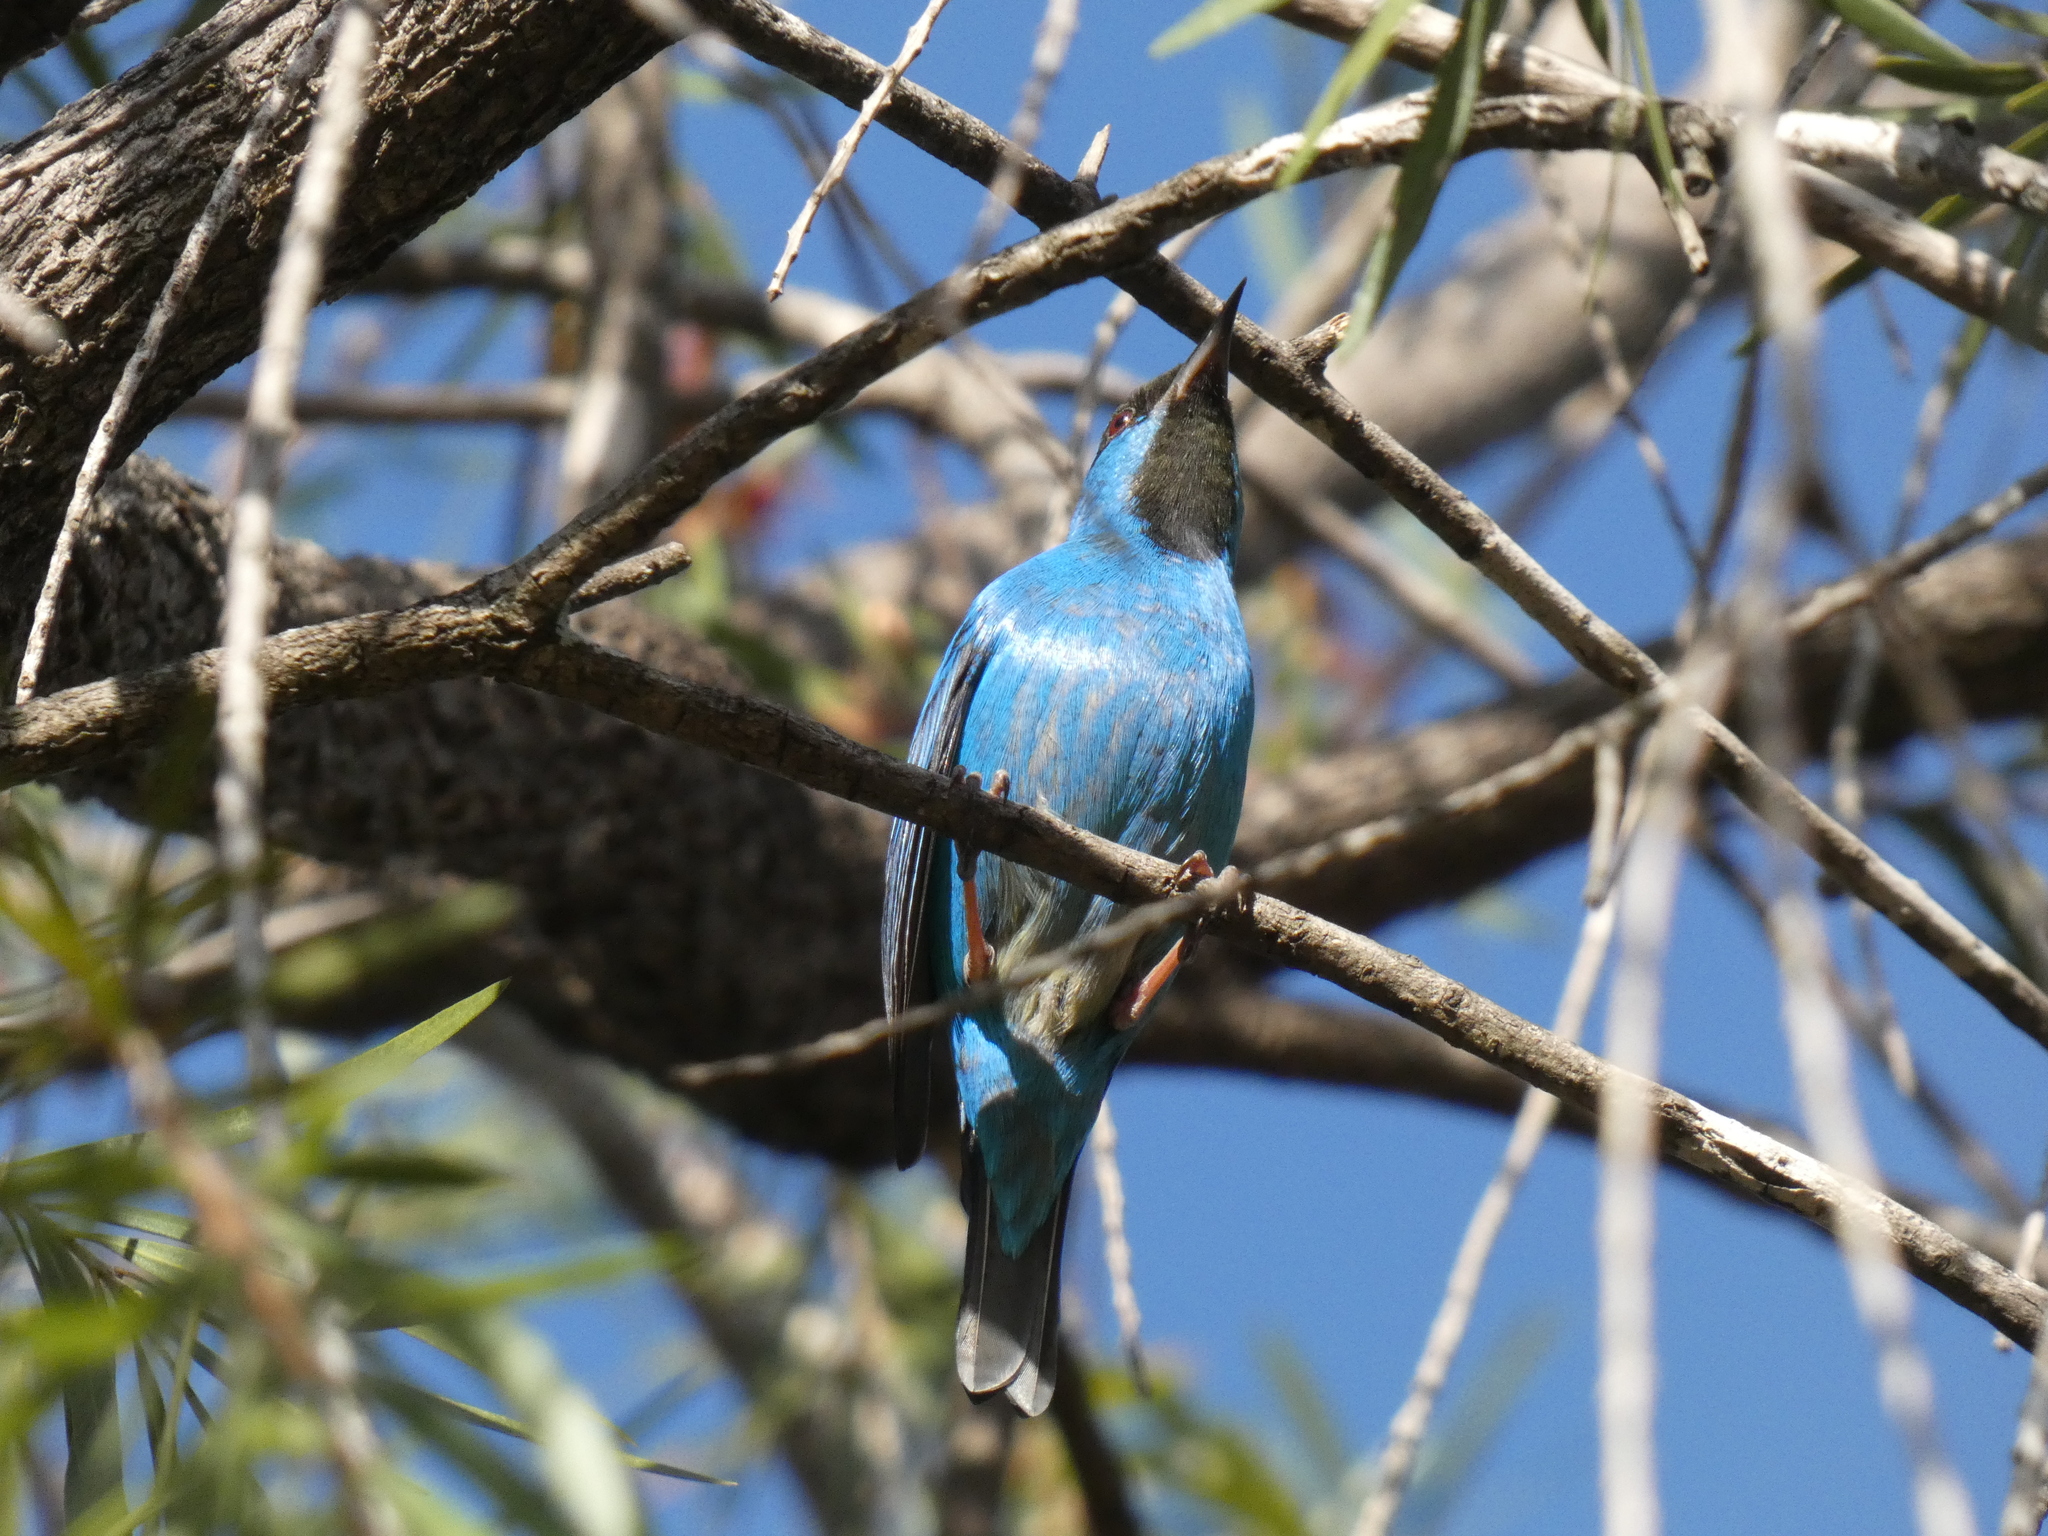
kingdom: Animalia
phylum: Chordata
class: Aves
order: Passeriformes
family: Thraupidae
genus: Dacnis
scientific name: Dacnis cayana
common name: Blue dacnis
